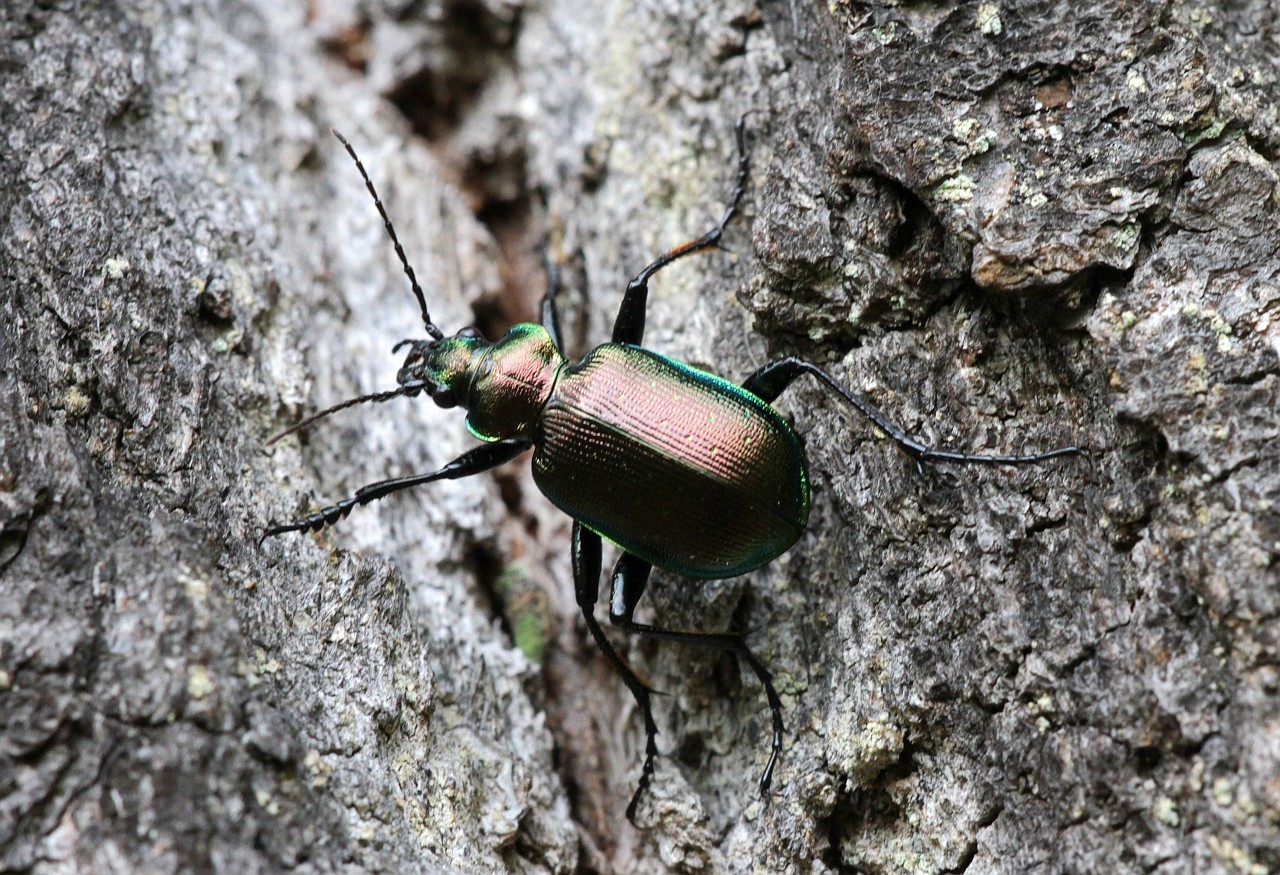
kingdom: Animalia
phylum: Arthropoda
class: Insecta
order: Coleoptera
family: Carabidae
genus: Calosoma
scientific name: Calosoma inquisitor
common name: Caterpillar-hunter
